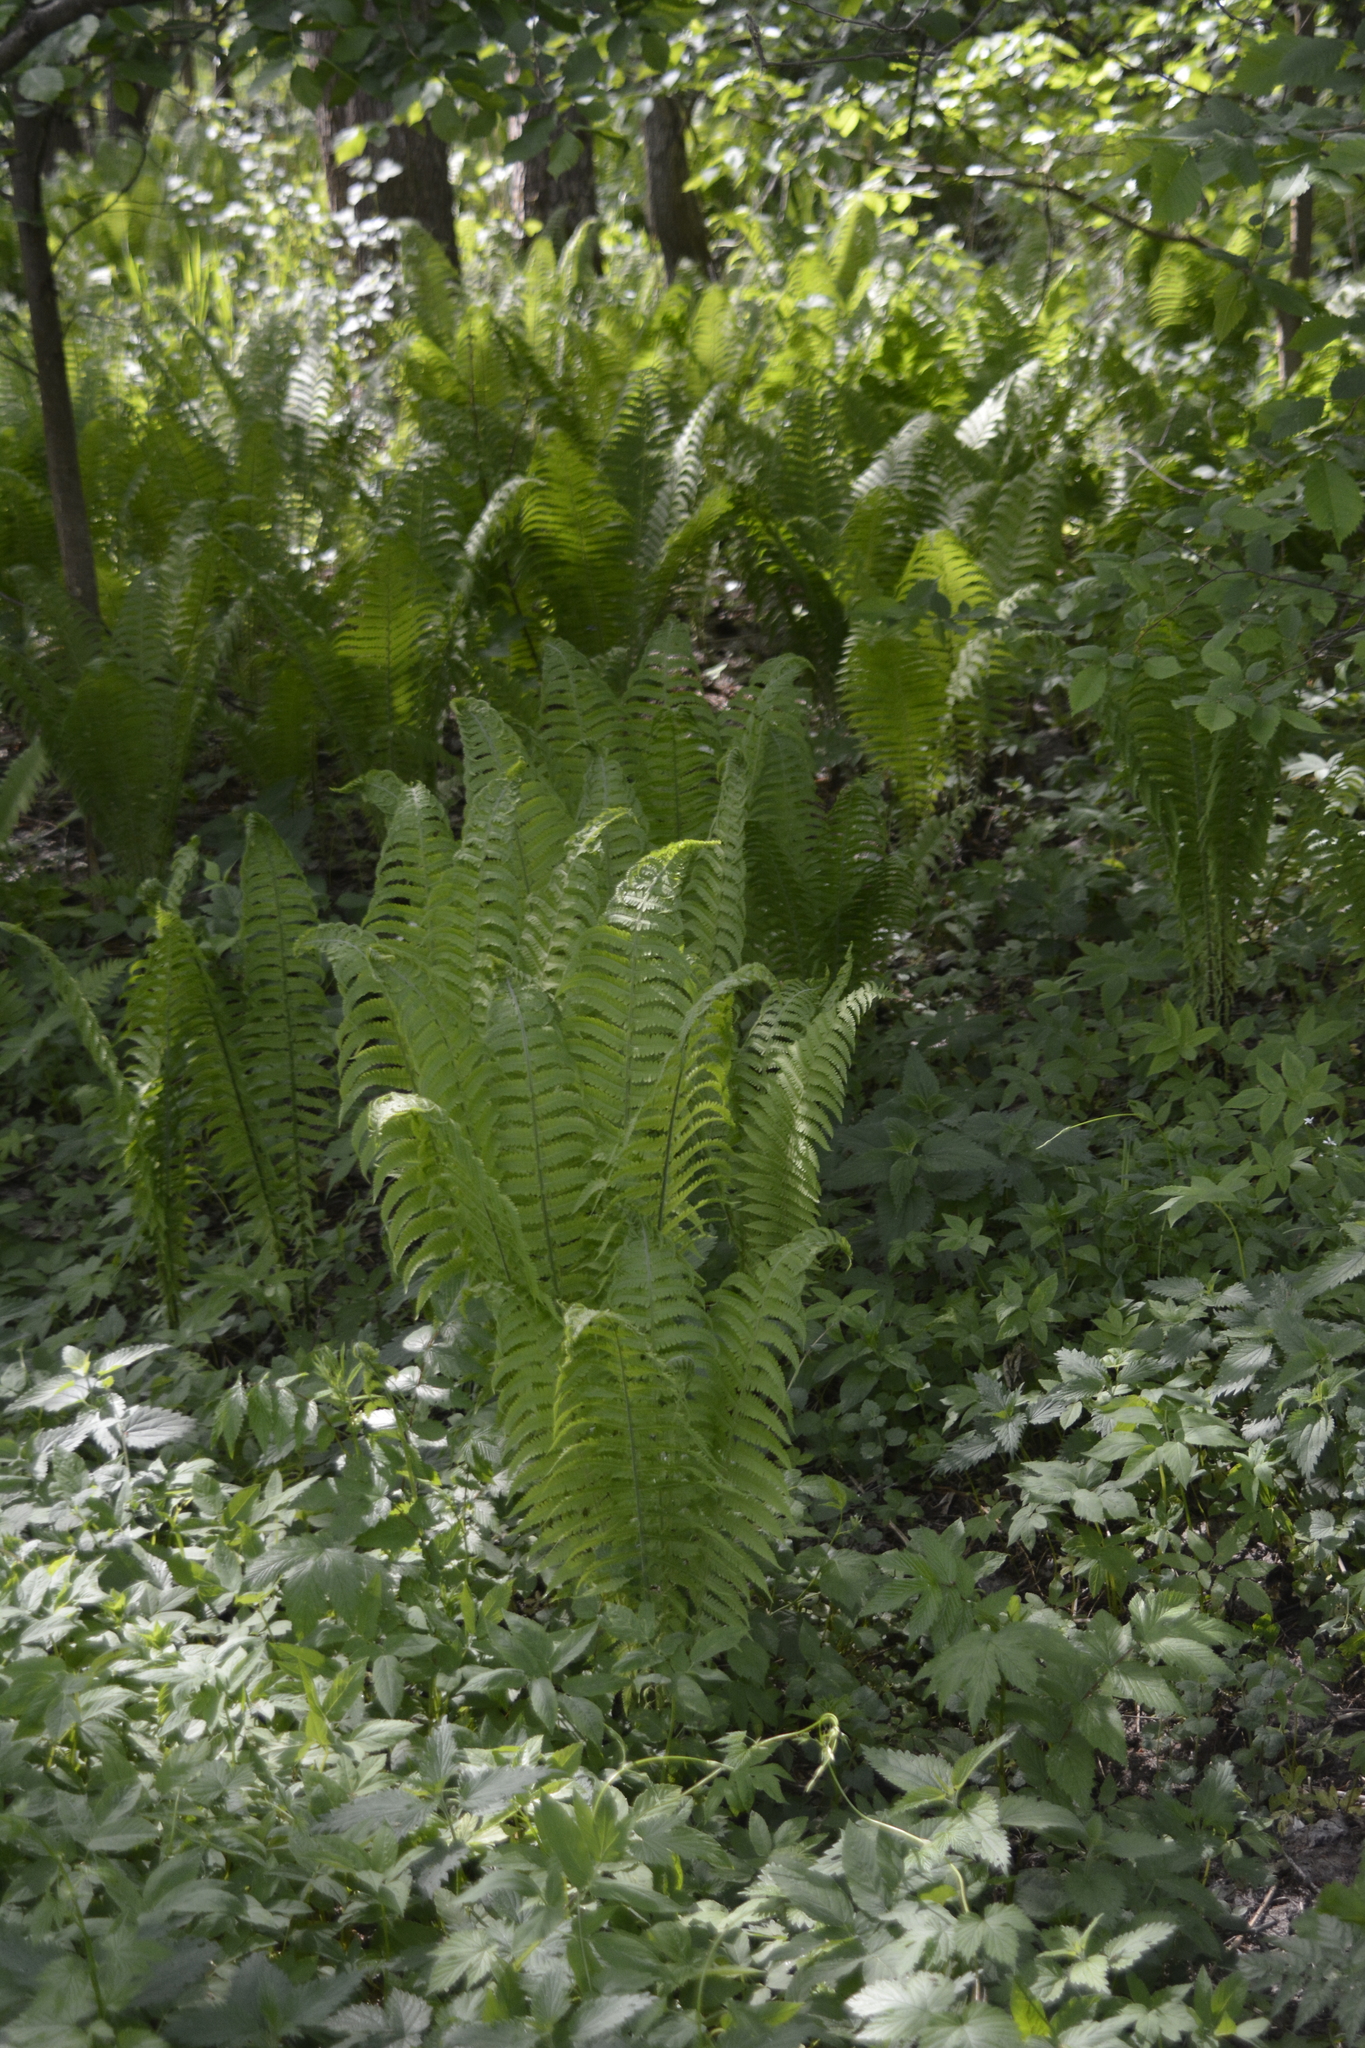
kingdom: Plantae
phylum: Tracheophyta
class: Polypodiopsida
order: Polypodiales
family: Onocleaceae
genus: Matteuccia
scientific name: Matteuccia struthiopteris
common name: Ostrich fern
